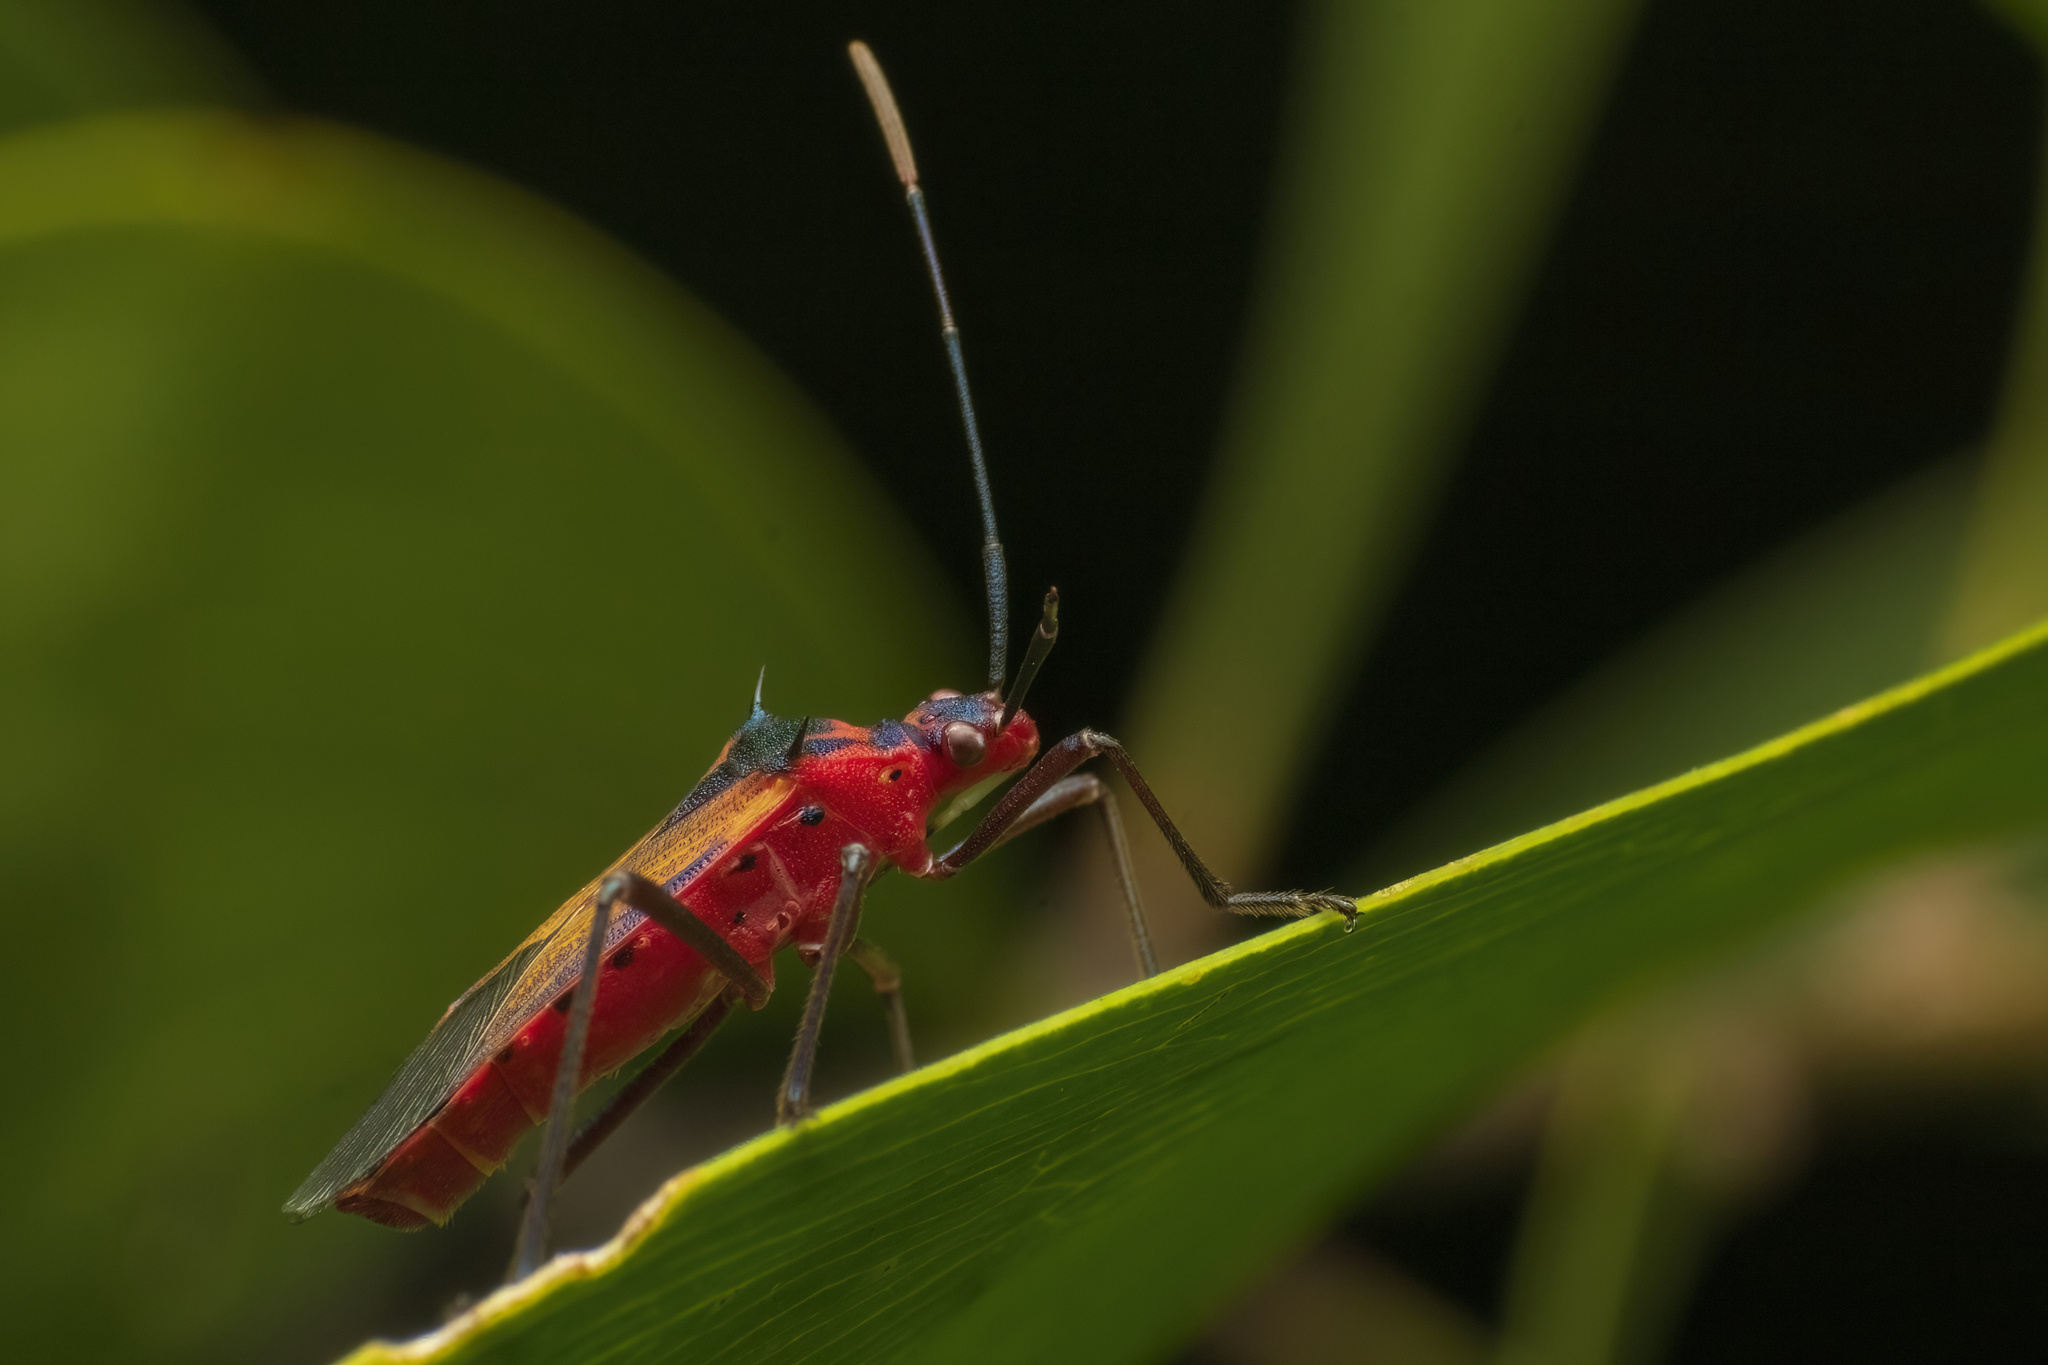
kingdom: Animalia
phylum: Arthropoda
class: Insecta
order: Hemiptera
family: Coreidae
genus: Plinachtus
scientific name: Plinachtus acicularis
